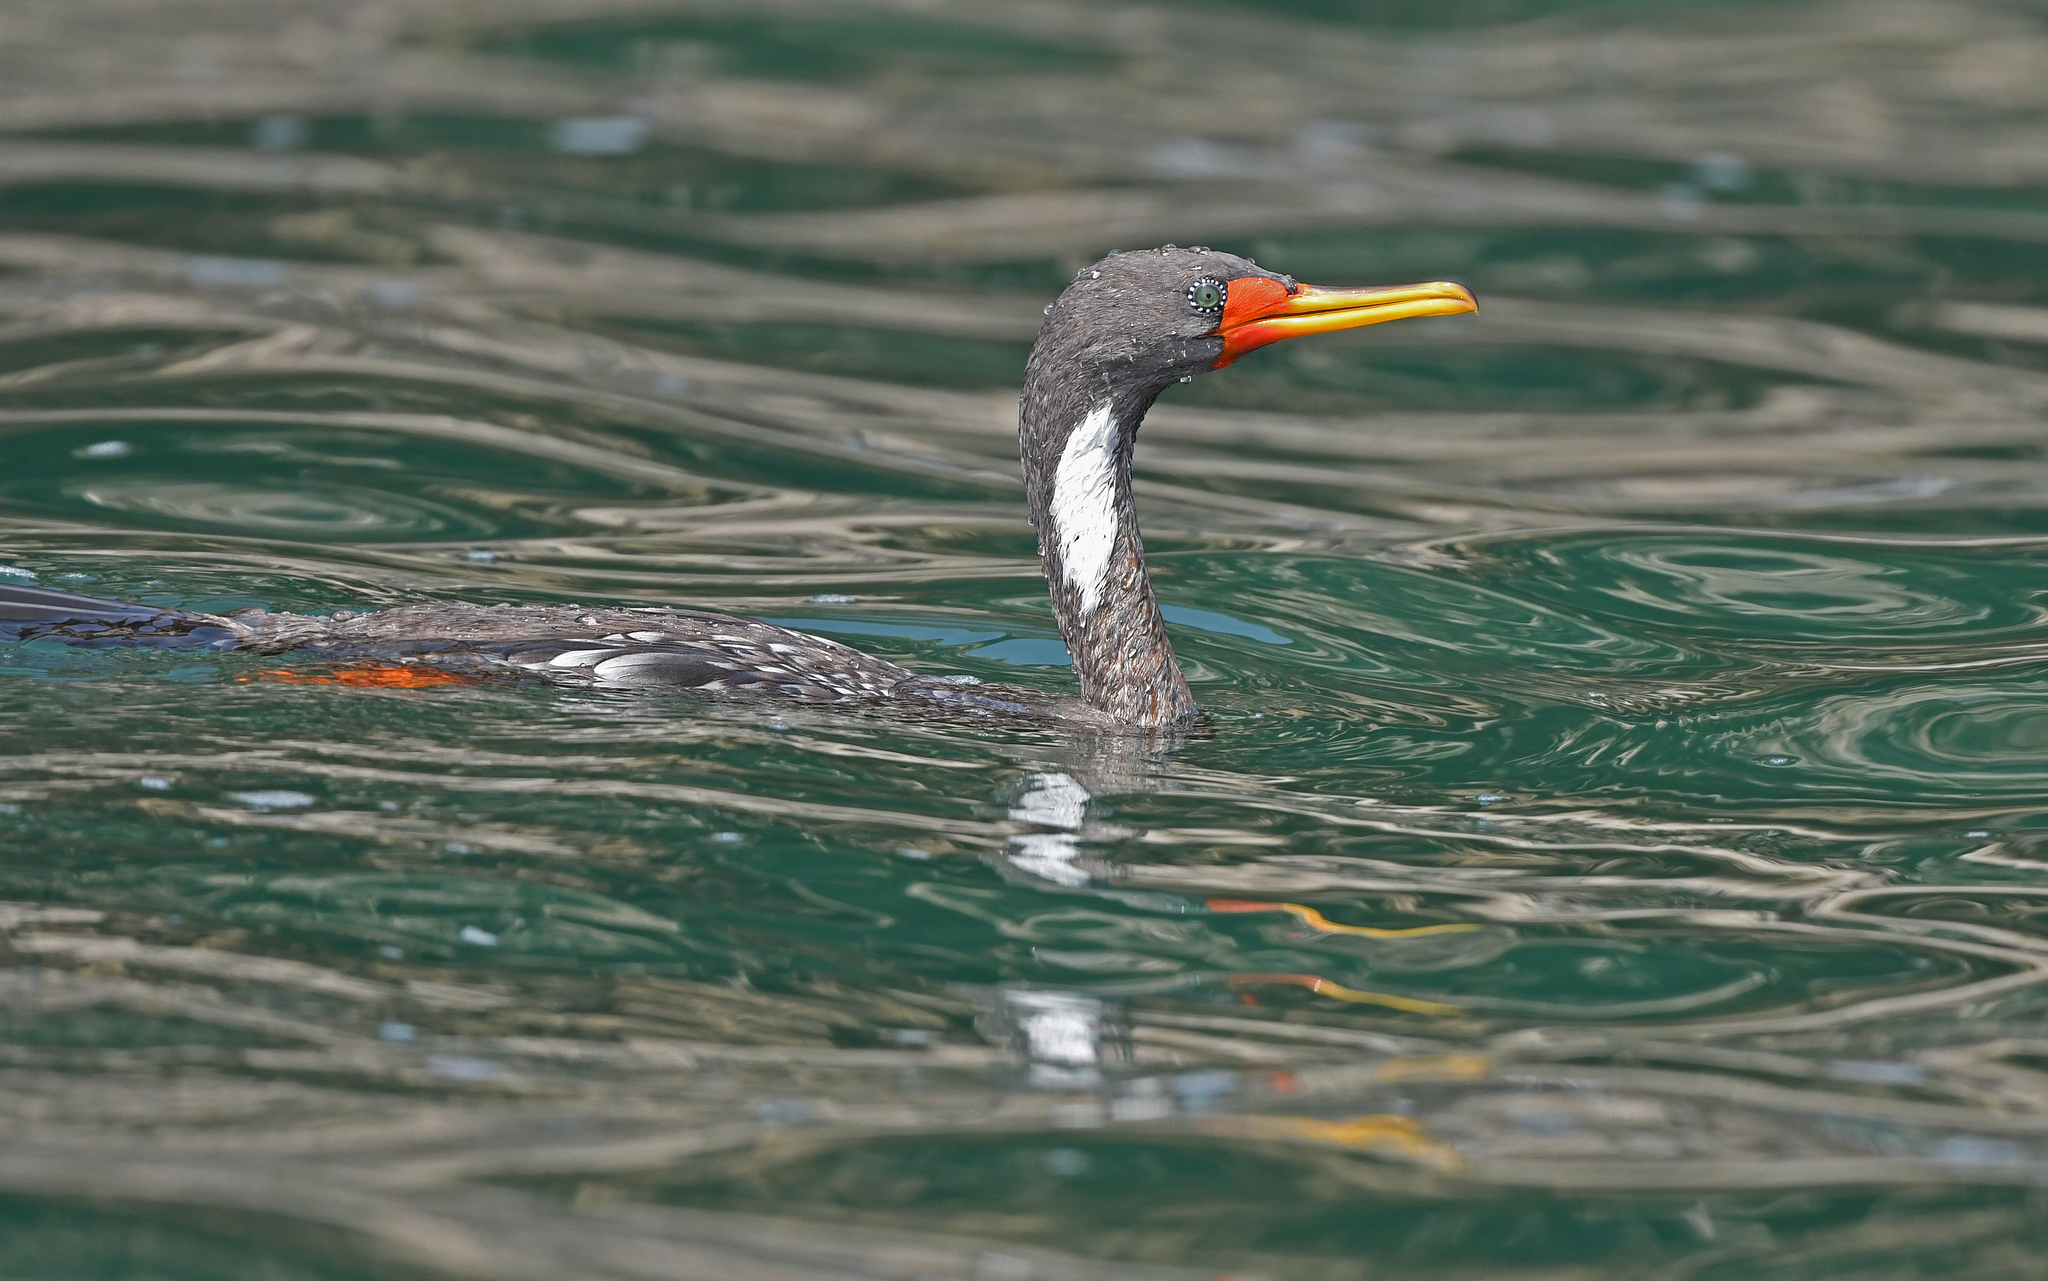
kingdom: Animalia
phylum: Chordata
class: Aves
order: Suliformes
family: Phalacrocoracidae
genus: Phalacrocorax
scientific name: Phalacrocorax gaimardi
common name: Red-legged cormorant
